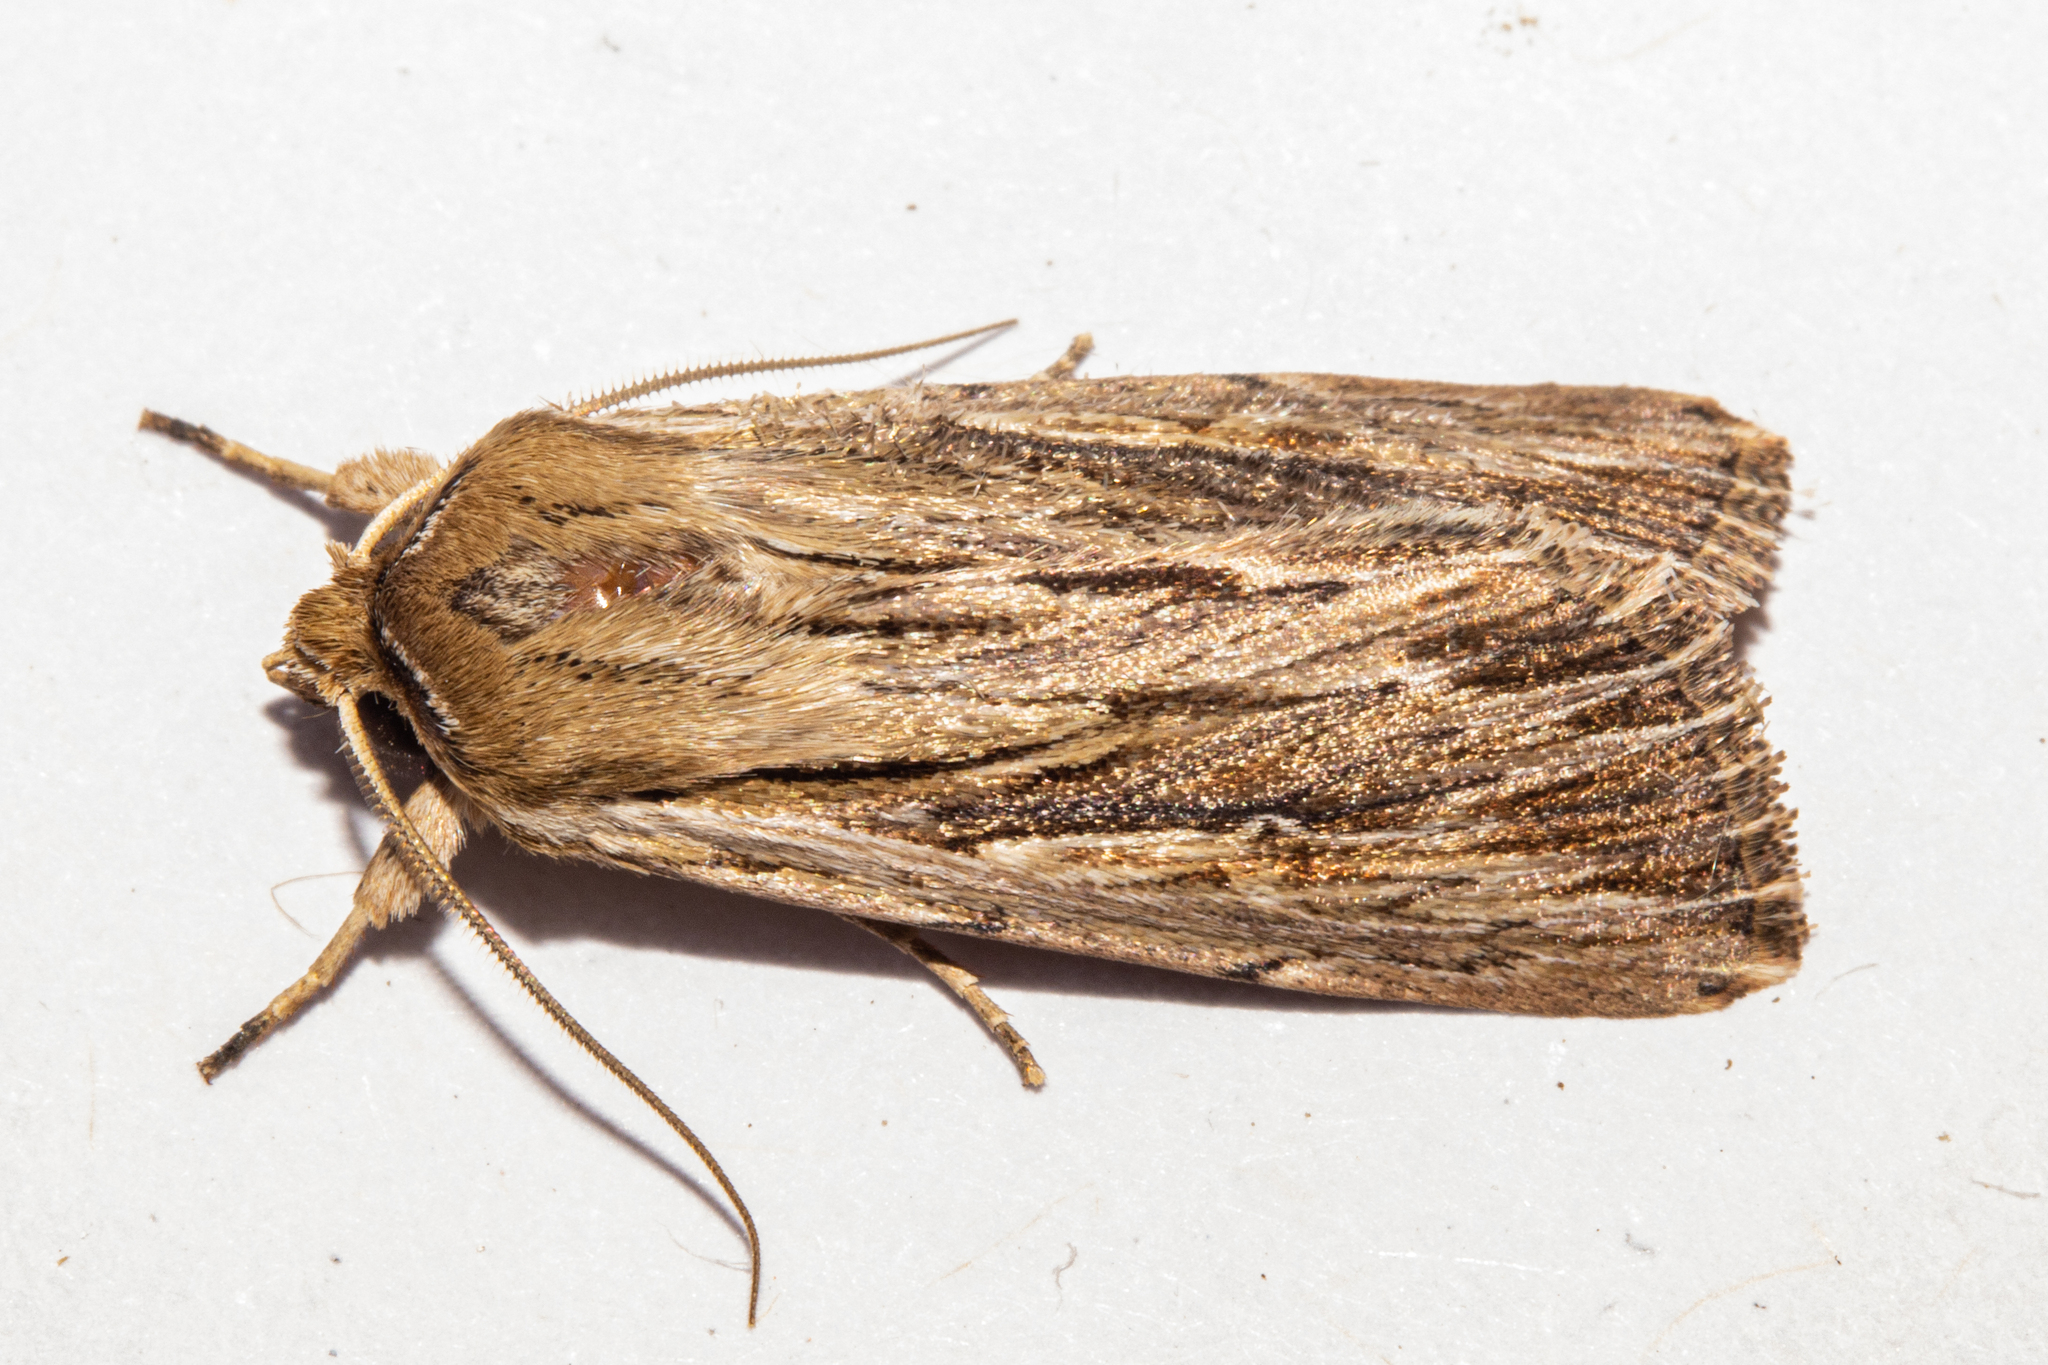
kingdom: Animalia
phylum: Arthropoda
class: Insecta
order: Lepidoptera
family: Noctuidae
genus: Persectania
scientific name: Persectania aversa
